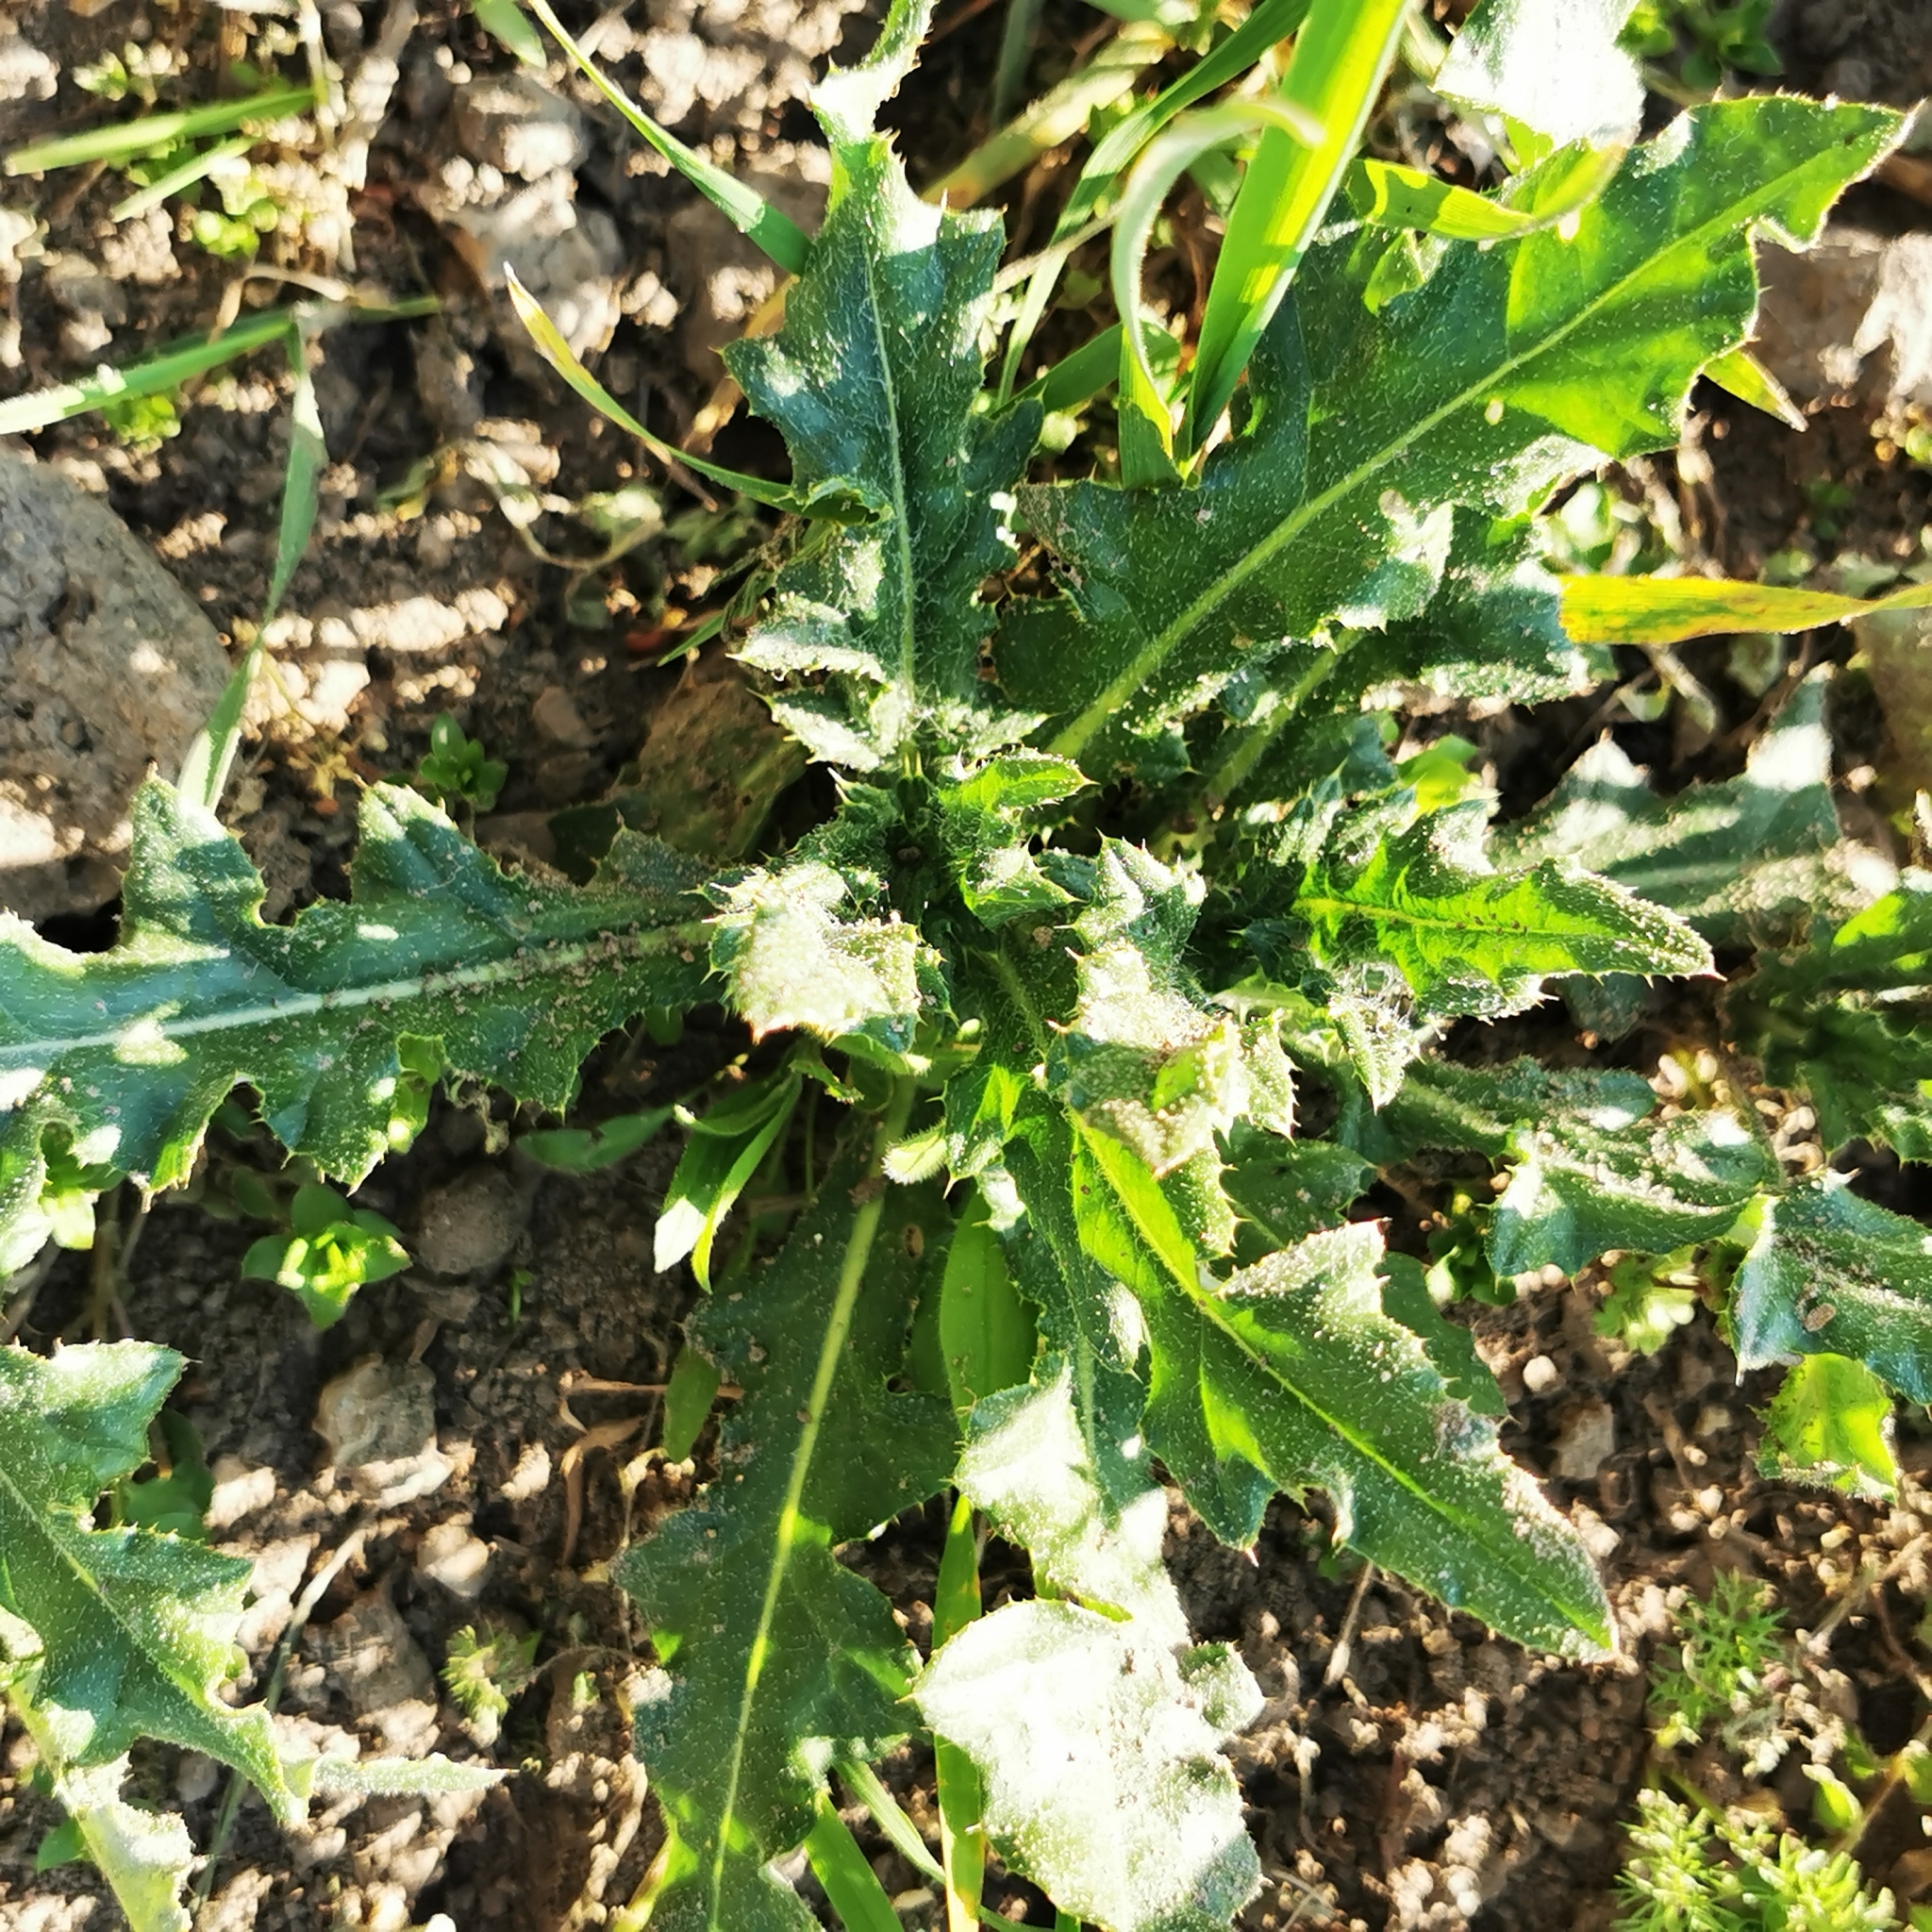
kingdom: Plantae
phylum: Tracheophyta
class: Magnoliopsida
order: Asterales
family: Asteraceae
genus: Cirsium
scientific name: Cirsium arvense
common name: Creeping thistle
